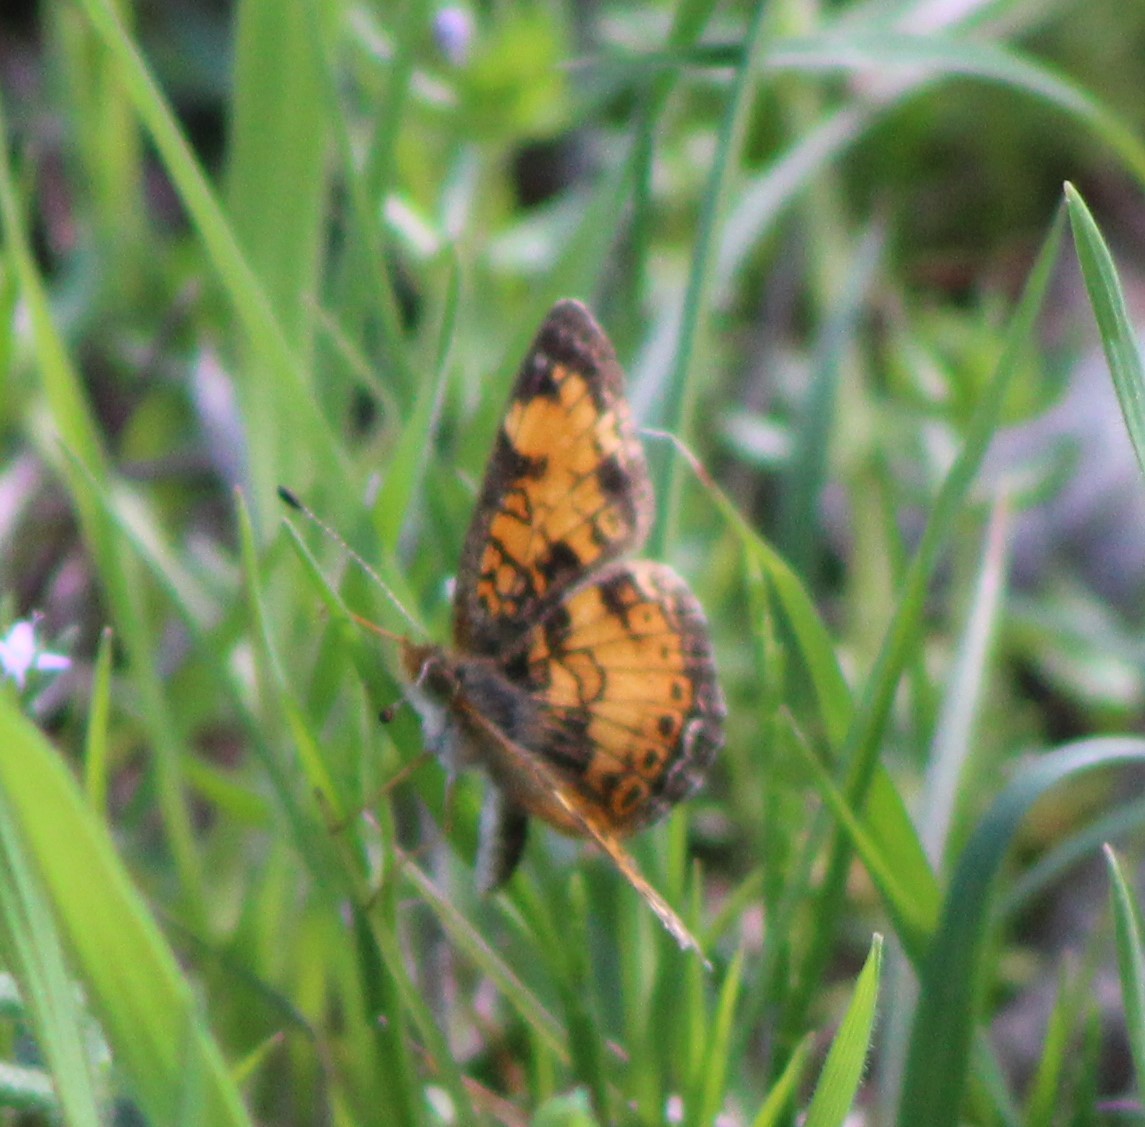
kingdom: Animalia
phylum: Arthropoda
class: Insecta
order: Lepidoptera
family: Nymphalidae
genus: Phyciodes
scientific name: Phyciodes tharos
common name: Pearl crescent
